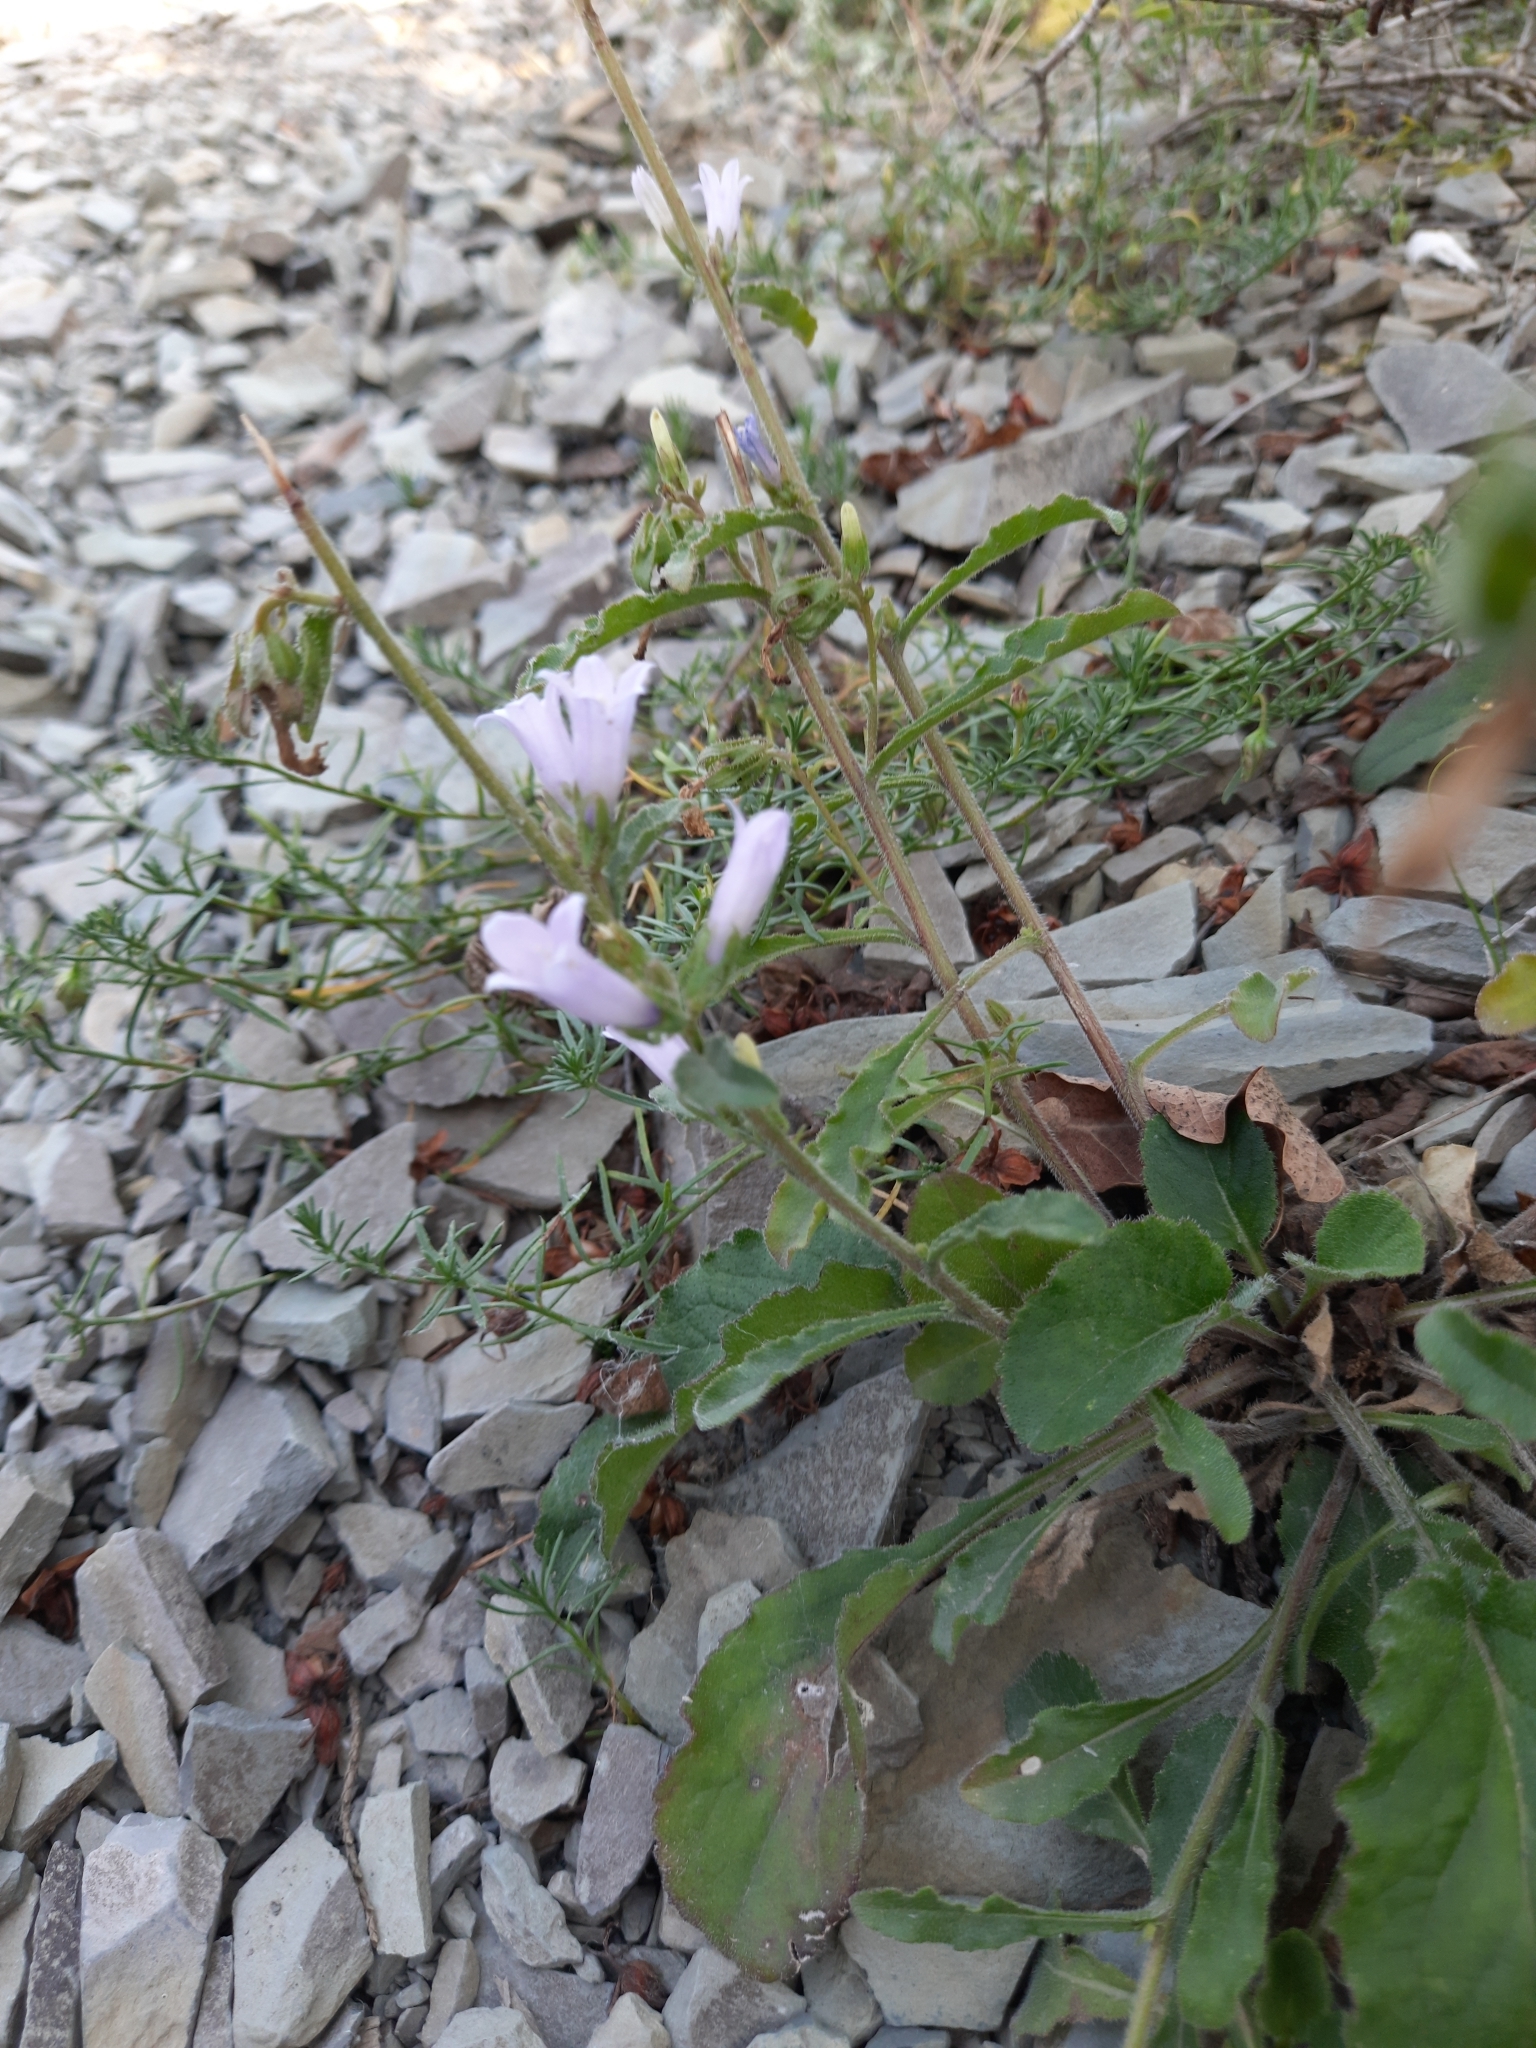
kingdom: Plantae
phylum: Tracheophyta
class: Magnoliopsida
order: Asterales
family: Campanulaceae
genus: Campanula
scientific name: Campanula komarovii
